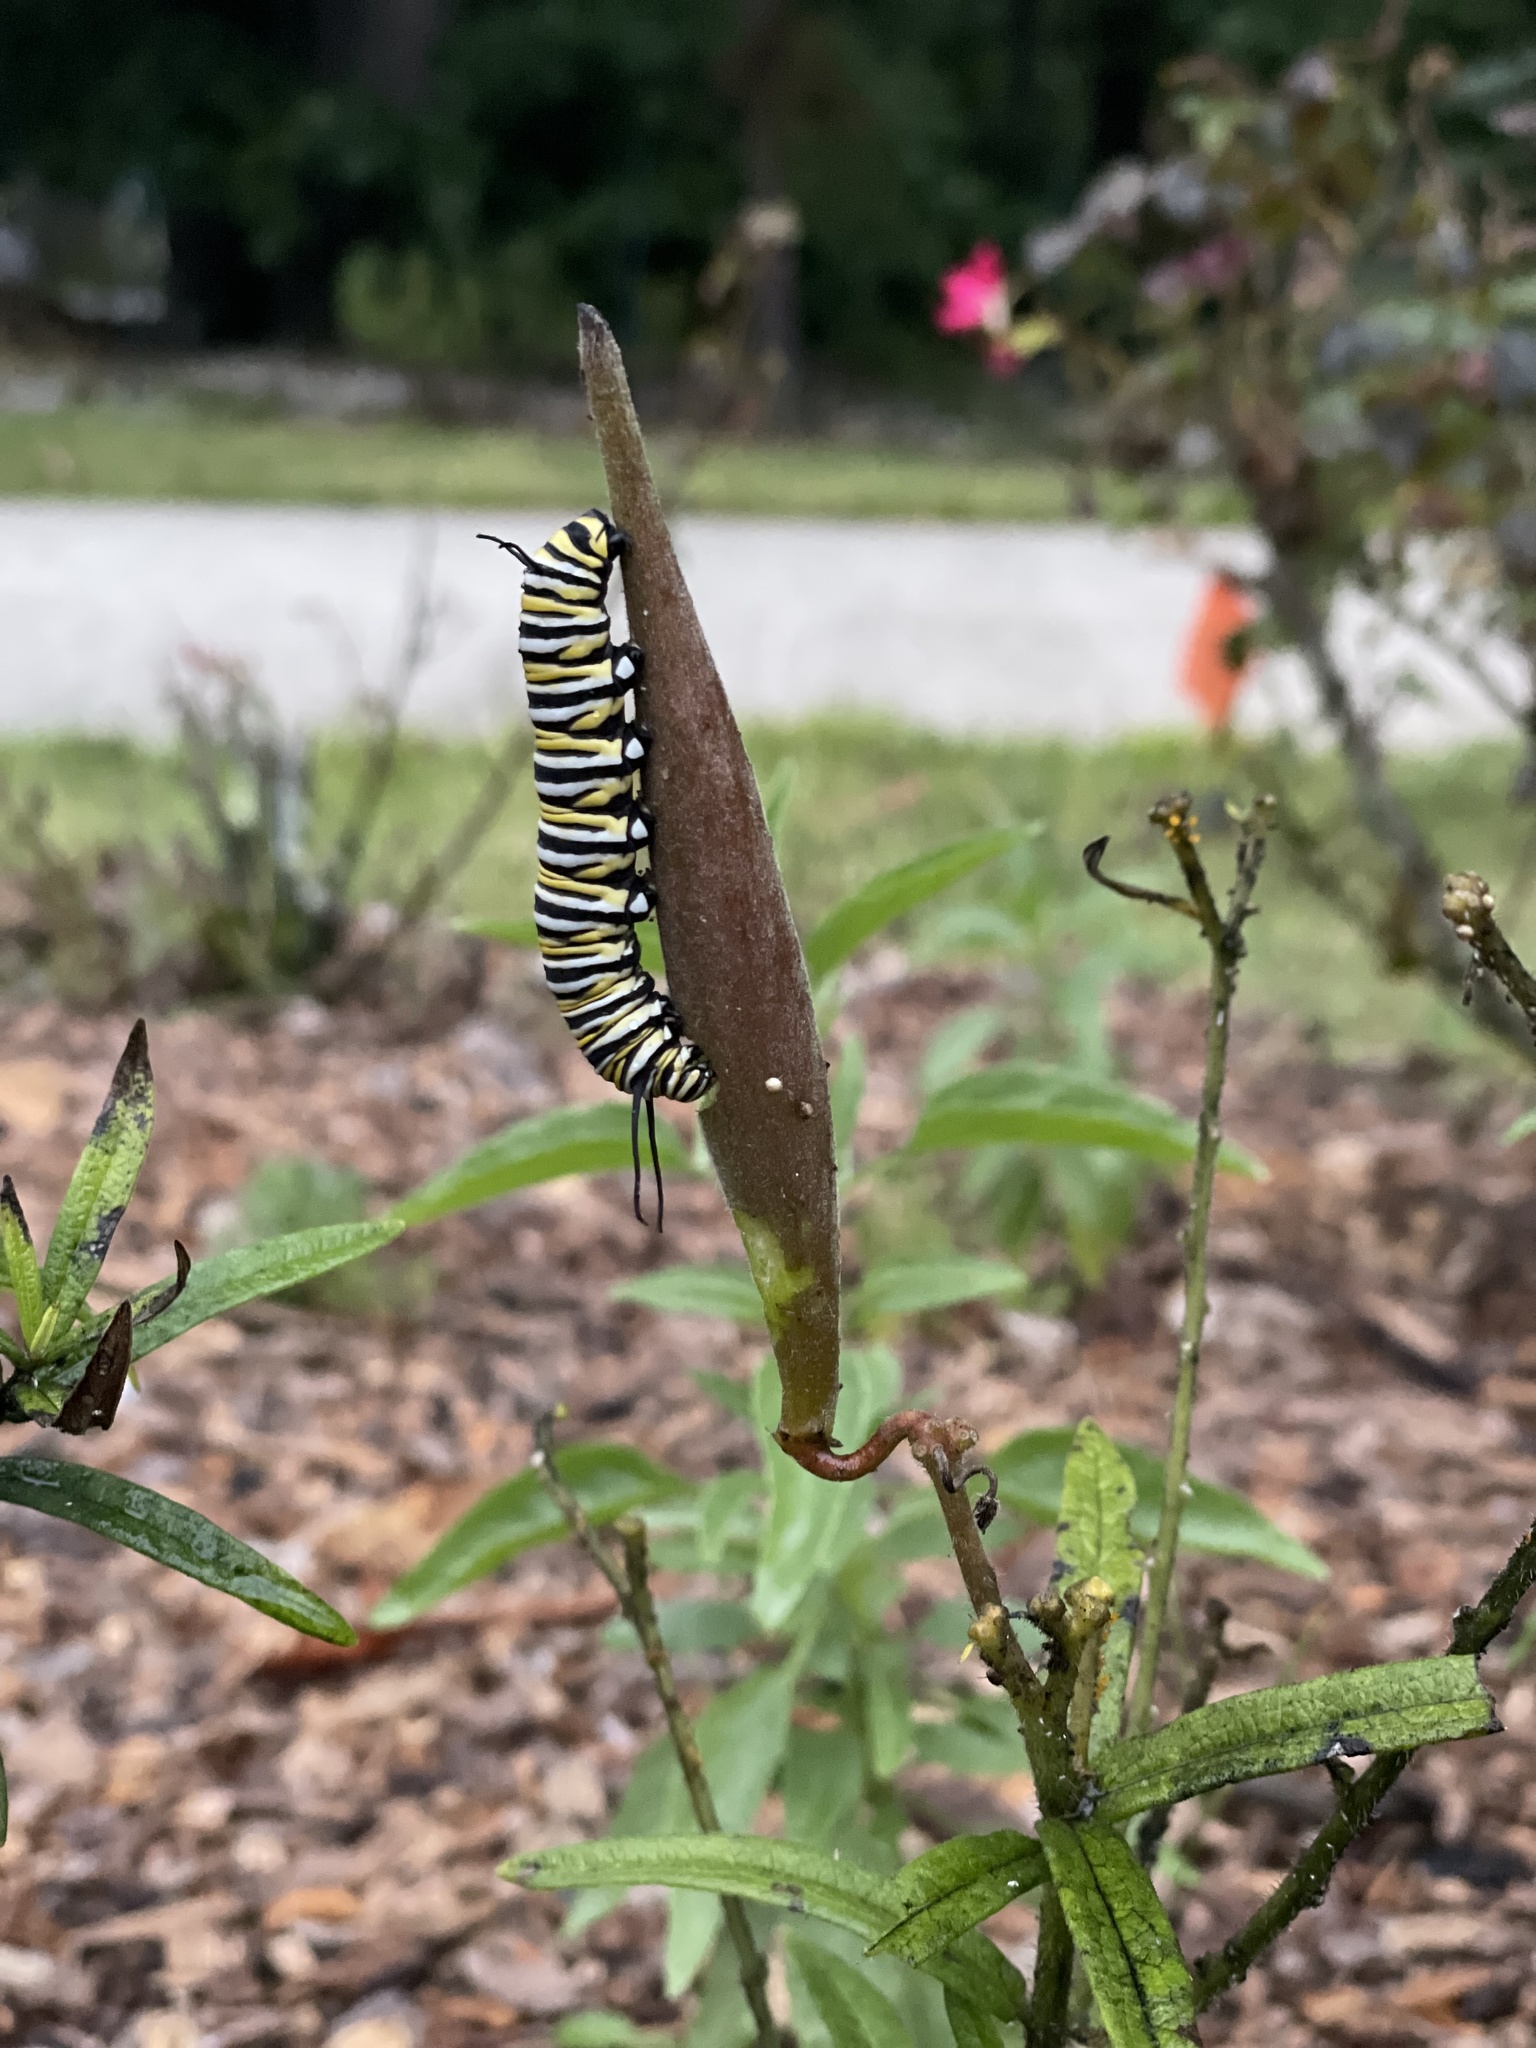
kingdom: Animalia
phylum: Arthropoda
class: Insecta
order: Lepidoptera
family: Nymphalidae
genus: Danaus
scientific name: Danaus plexippus
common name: Monarch
